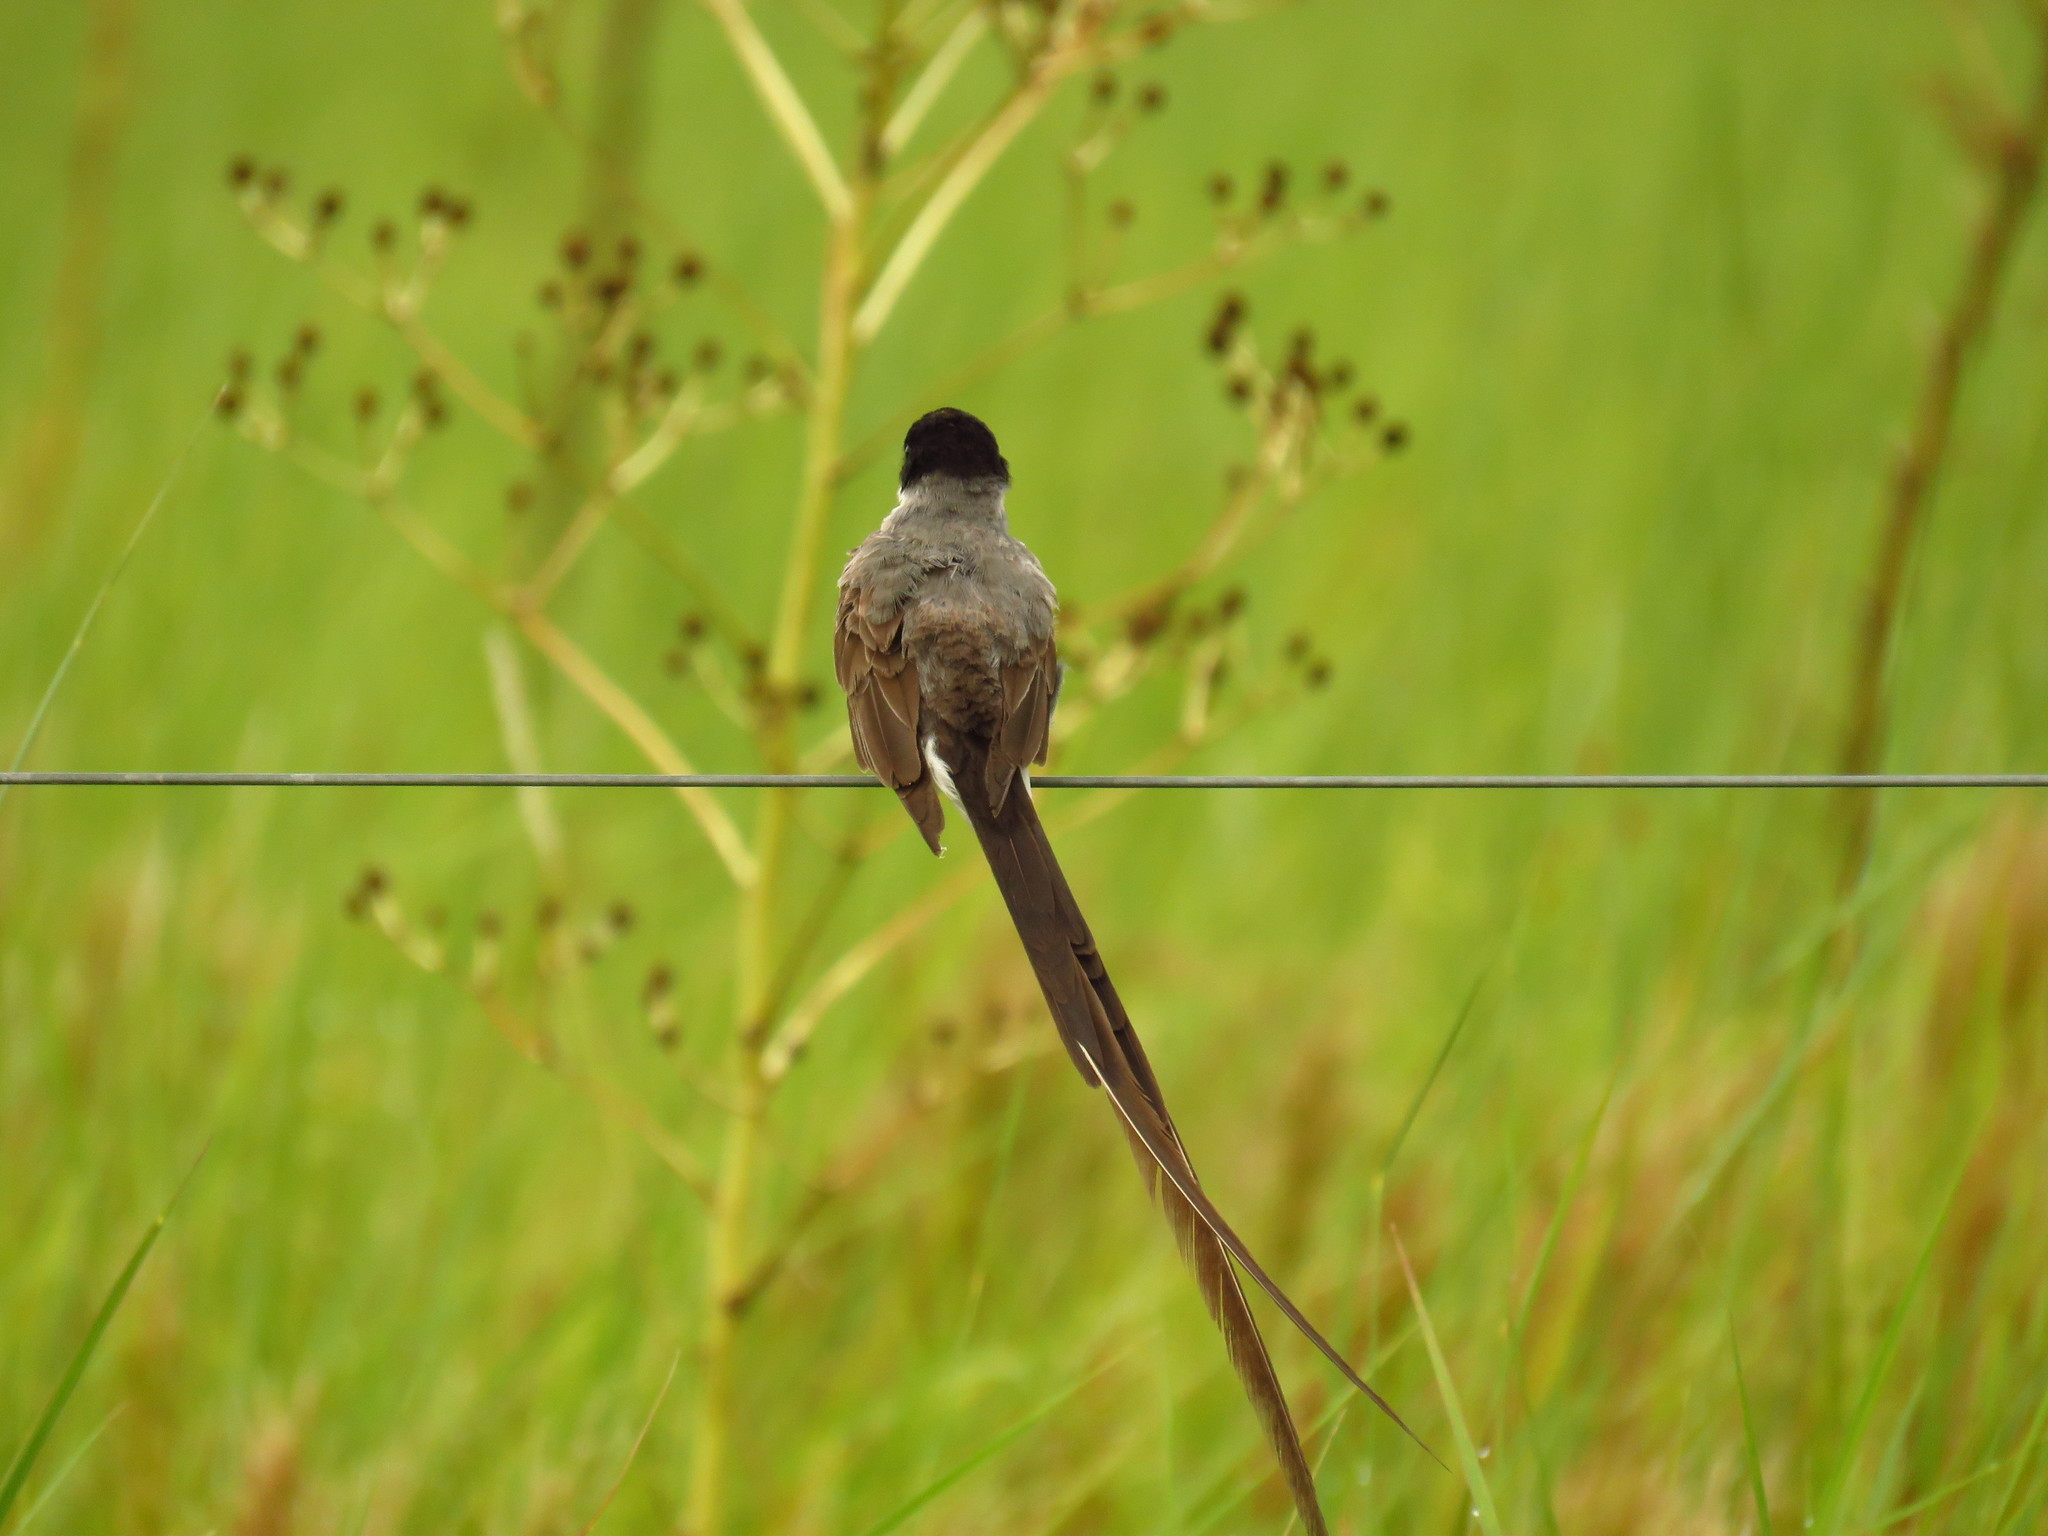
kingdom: Animalia
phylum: Chordata
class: Aves
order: Passeriformes
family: Tyrannidae
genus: Tyrannus
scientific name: Tyrannus savana
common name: Fork-tailed flycatcher
